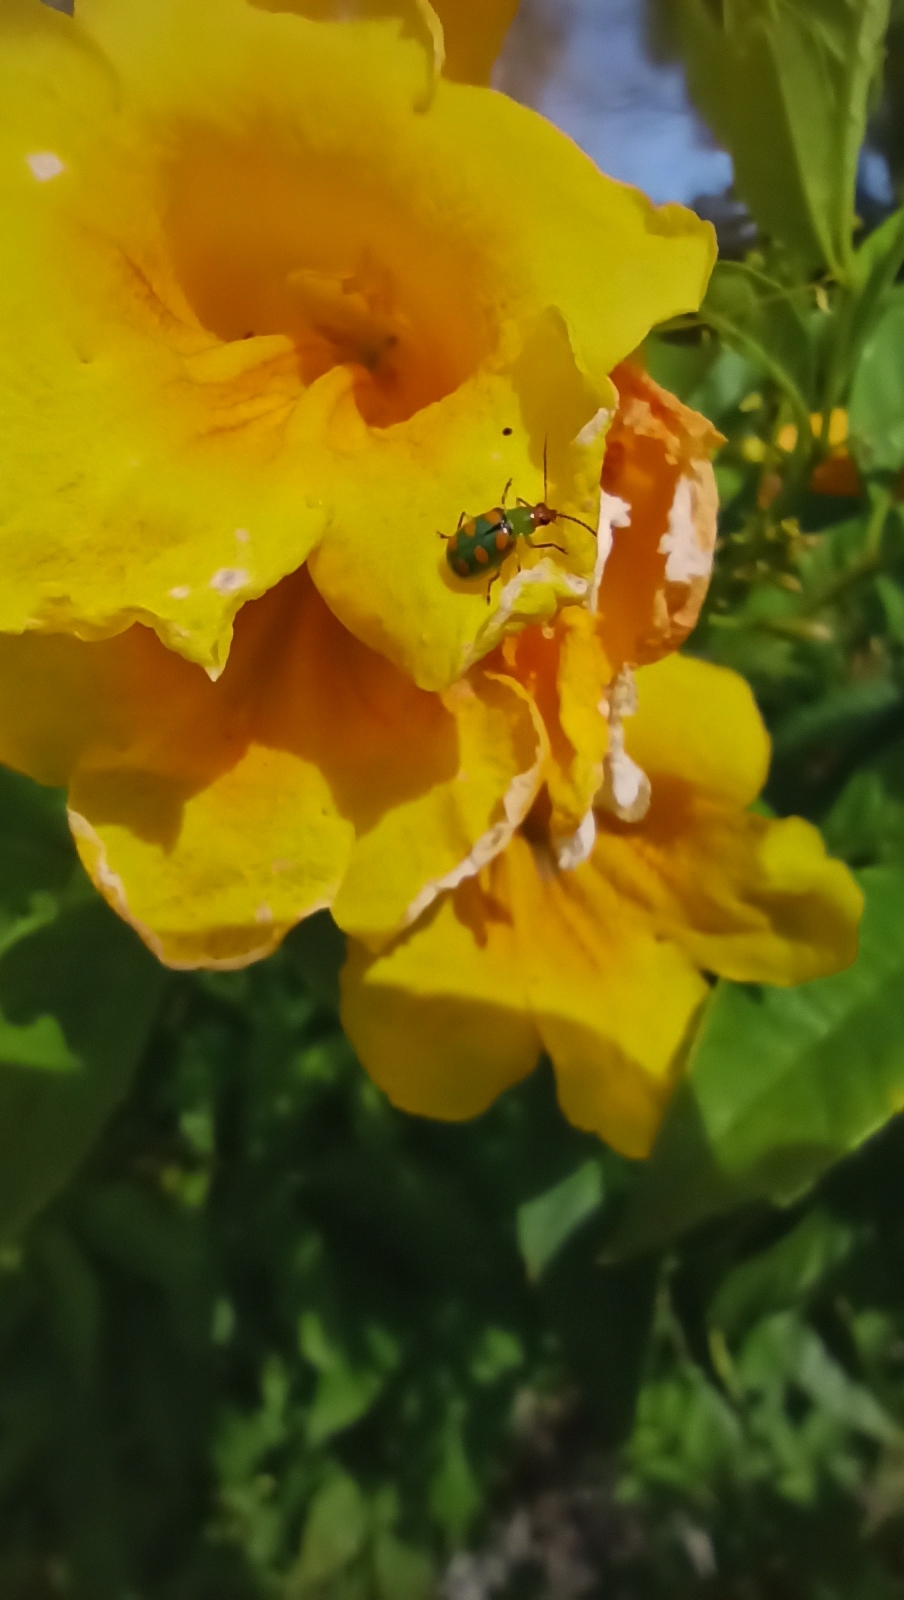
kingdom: Animalia
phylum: Arthropoda
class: Insecta
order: Coleoptera
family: Chrysomelidae
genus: Diabrotica
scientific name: Diabrotica speciosa
